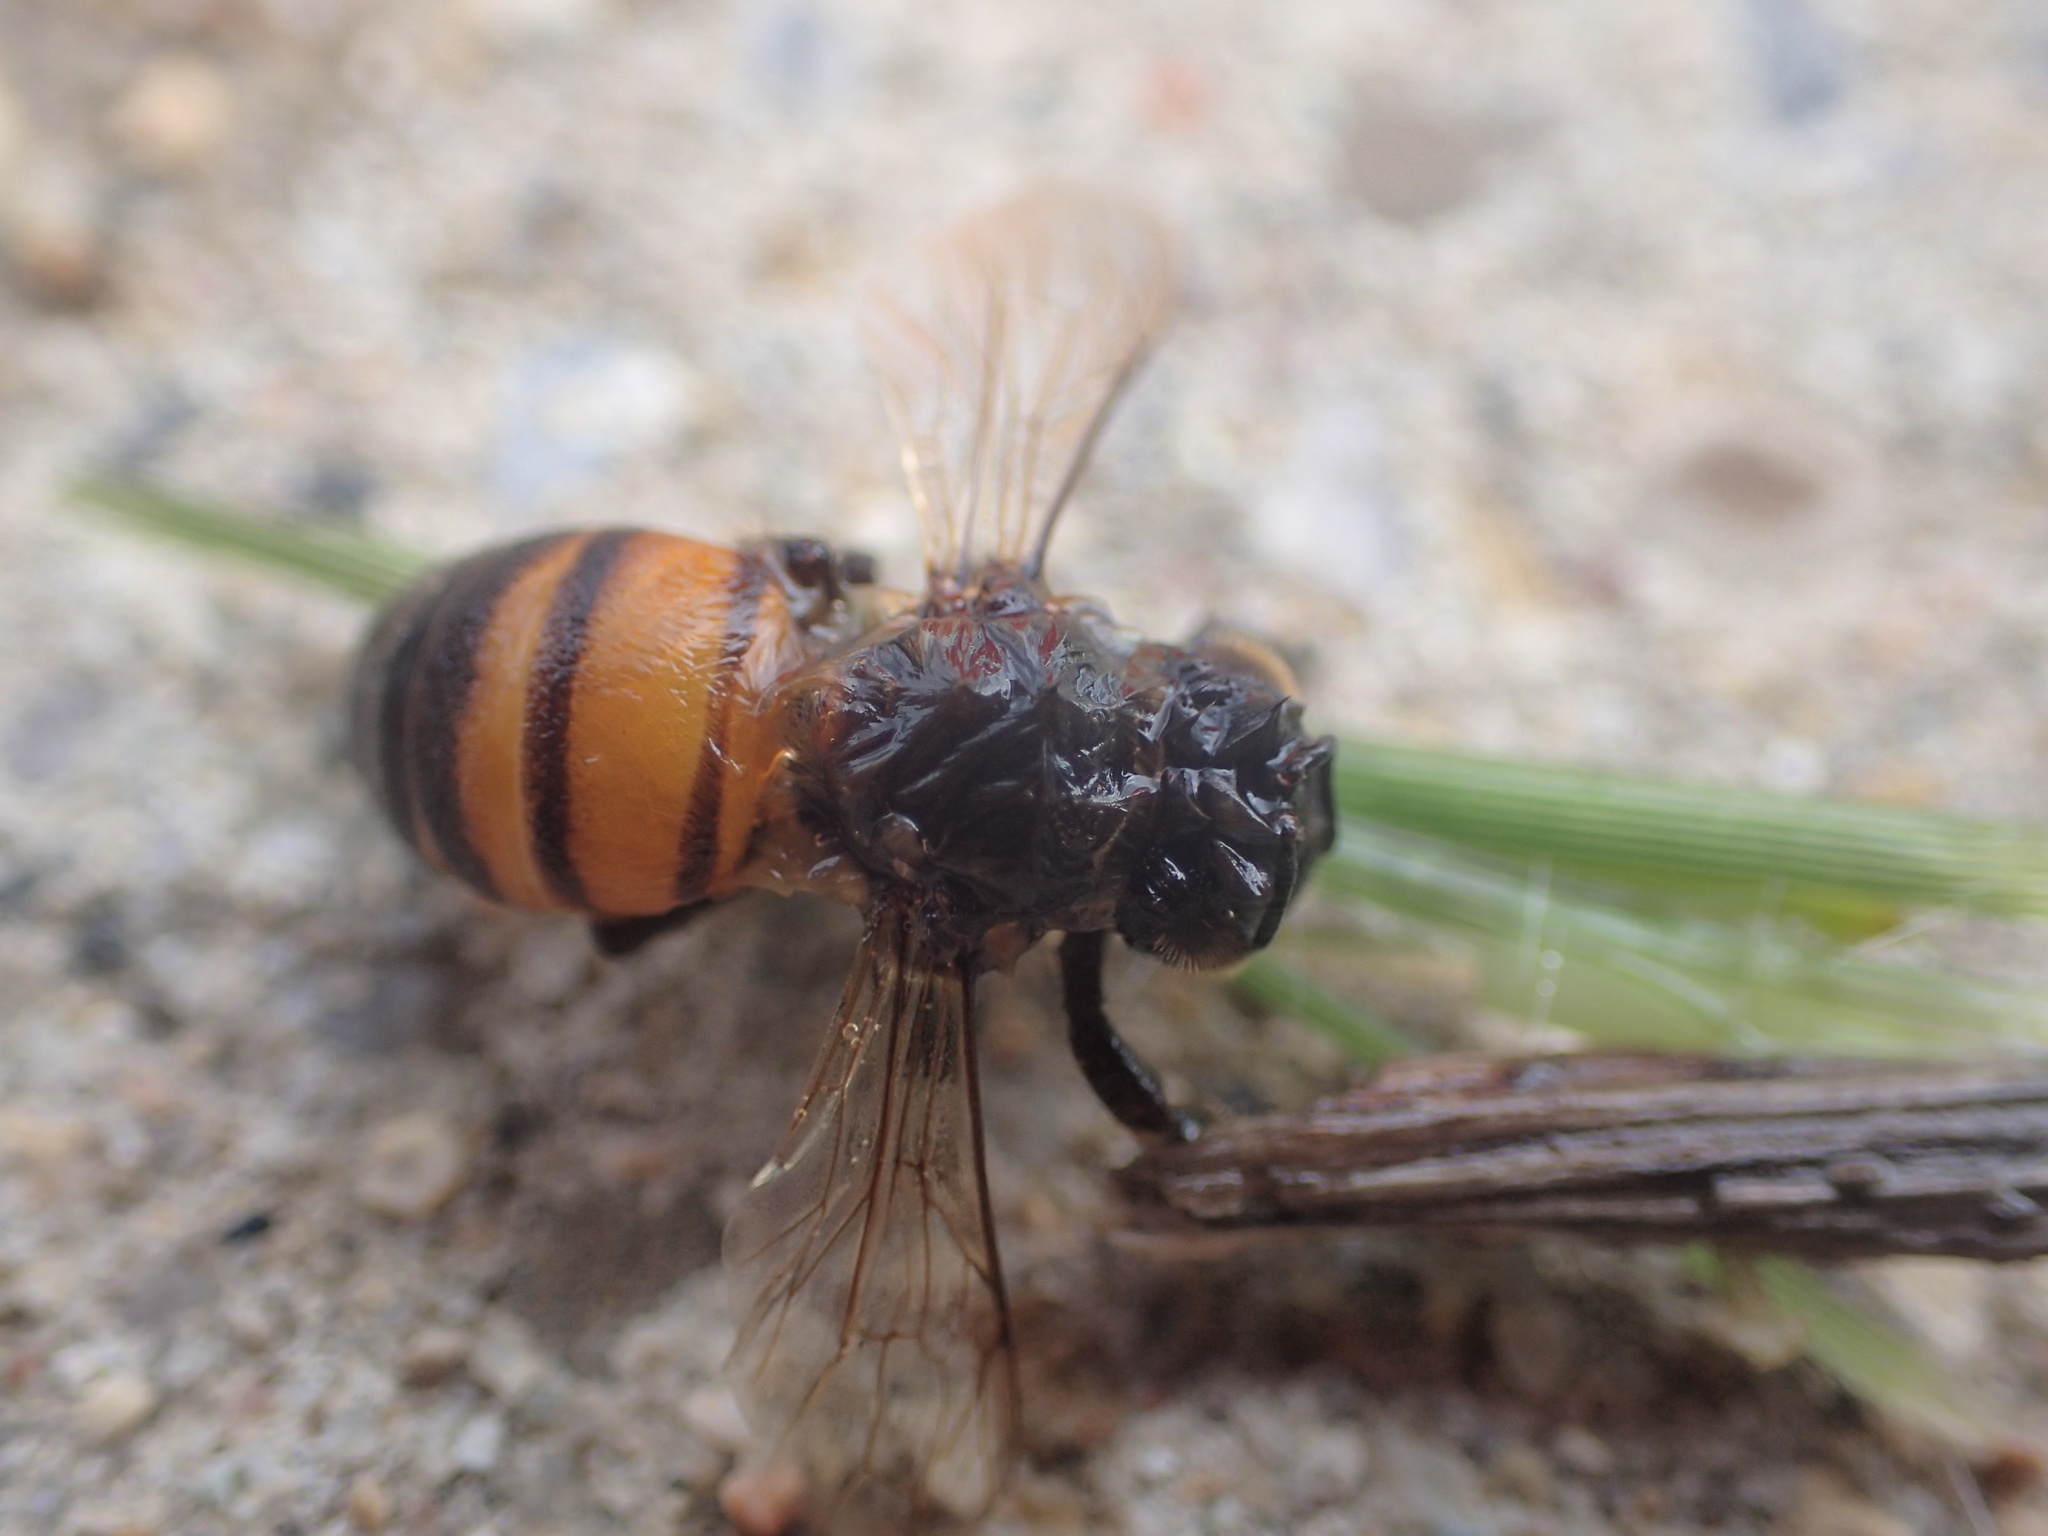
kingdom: Animalia
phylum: Arthropoda
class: Insecta
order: Hymenoptera
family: Apidae
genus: Apis
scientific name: Apis mellifera
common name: Honey bee
